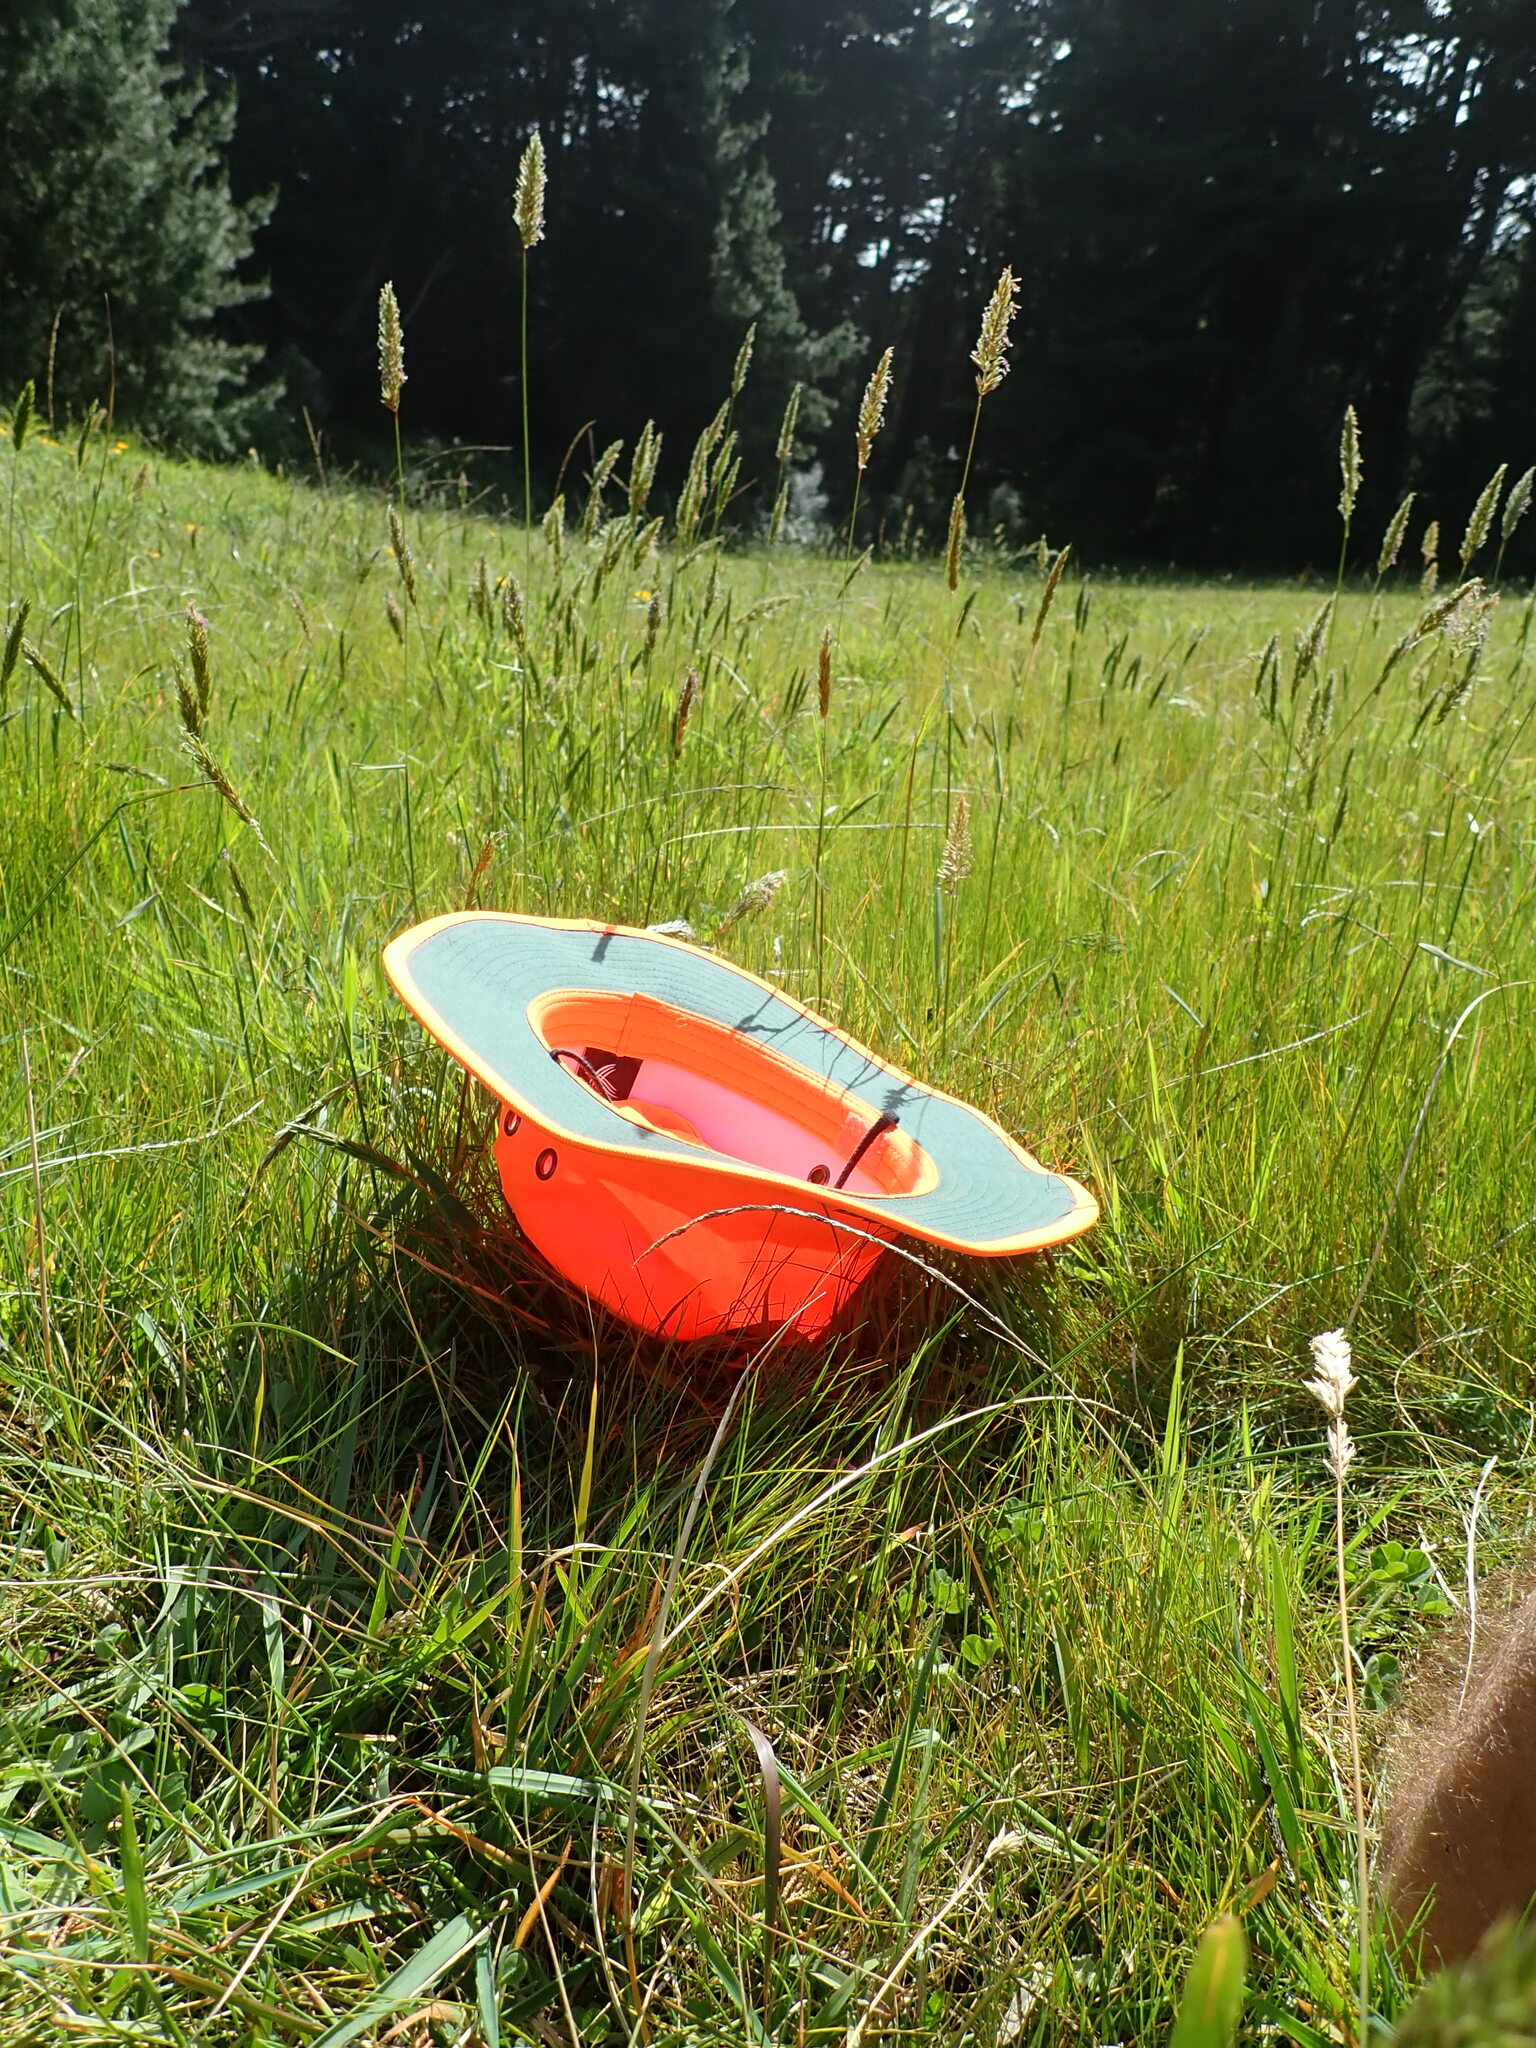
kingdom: Plantae
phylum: Tracheophyta
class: Liliopsida
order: Asparagales
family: Iridaceae
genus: Romulea
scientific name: Romulea rosea
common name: Oniongrass
